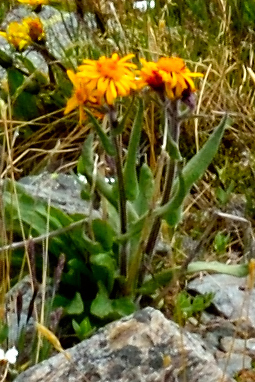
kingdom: Plantae
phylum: Tracheophyta
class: Magnoliopsida
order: Asterales
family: Asteraceae
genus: Tephroseris
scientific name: Tephroseris turczaninovii
